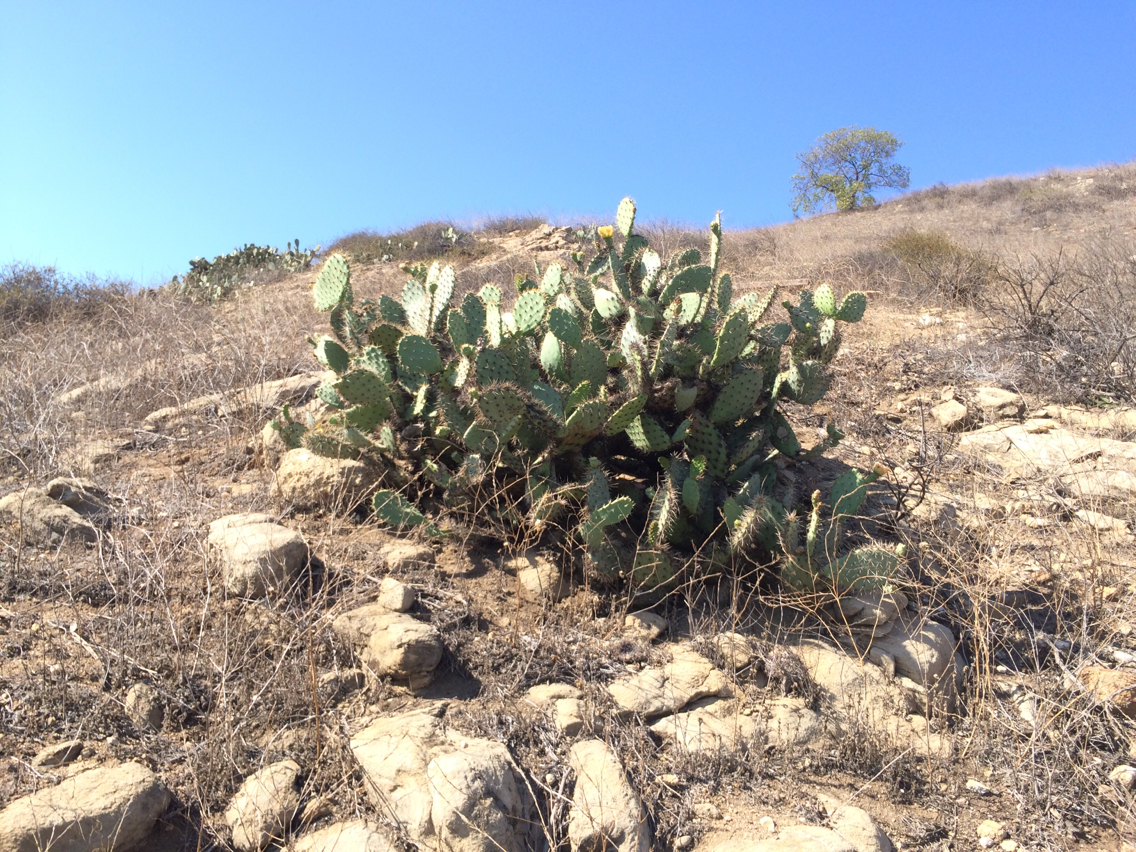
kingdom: Plantae
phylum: Tracheophyta
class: Magnoliopsida
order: Caryophyllales
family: Cactaceae
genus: Opuntia
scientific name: Opuntia littoralis
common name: Coastal prickly-pear
